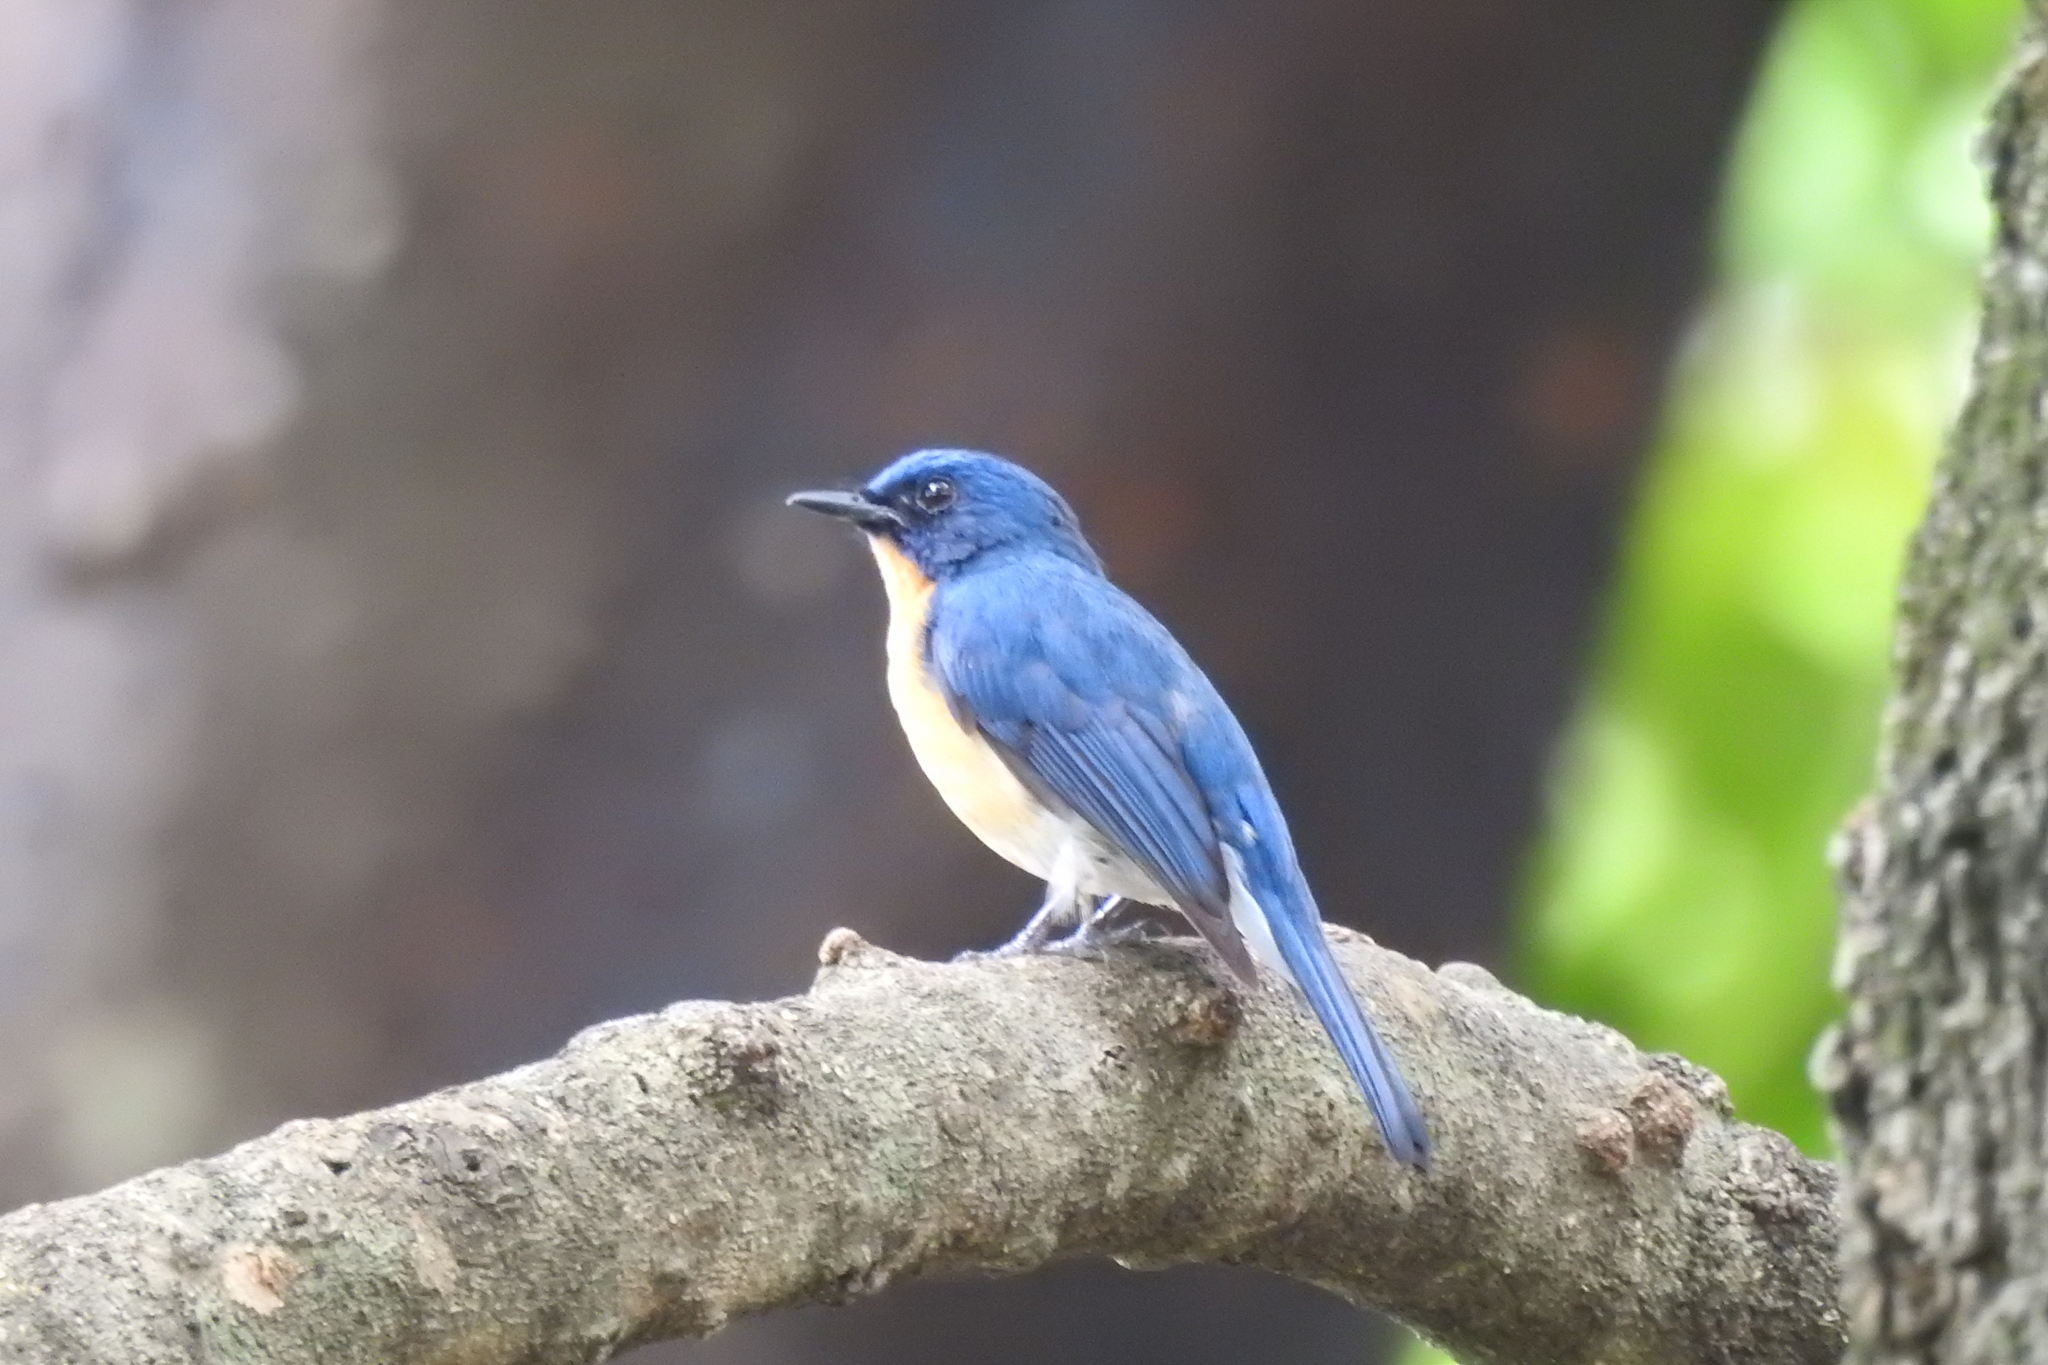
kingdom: Animalia
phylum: Chordata
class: Aves
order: Passeriformes
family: Muscicapidae
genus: Cyornis
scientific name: Cyornis tickelliae
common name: Tickell's blue flycatcher
